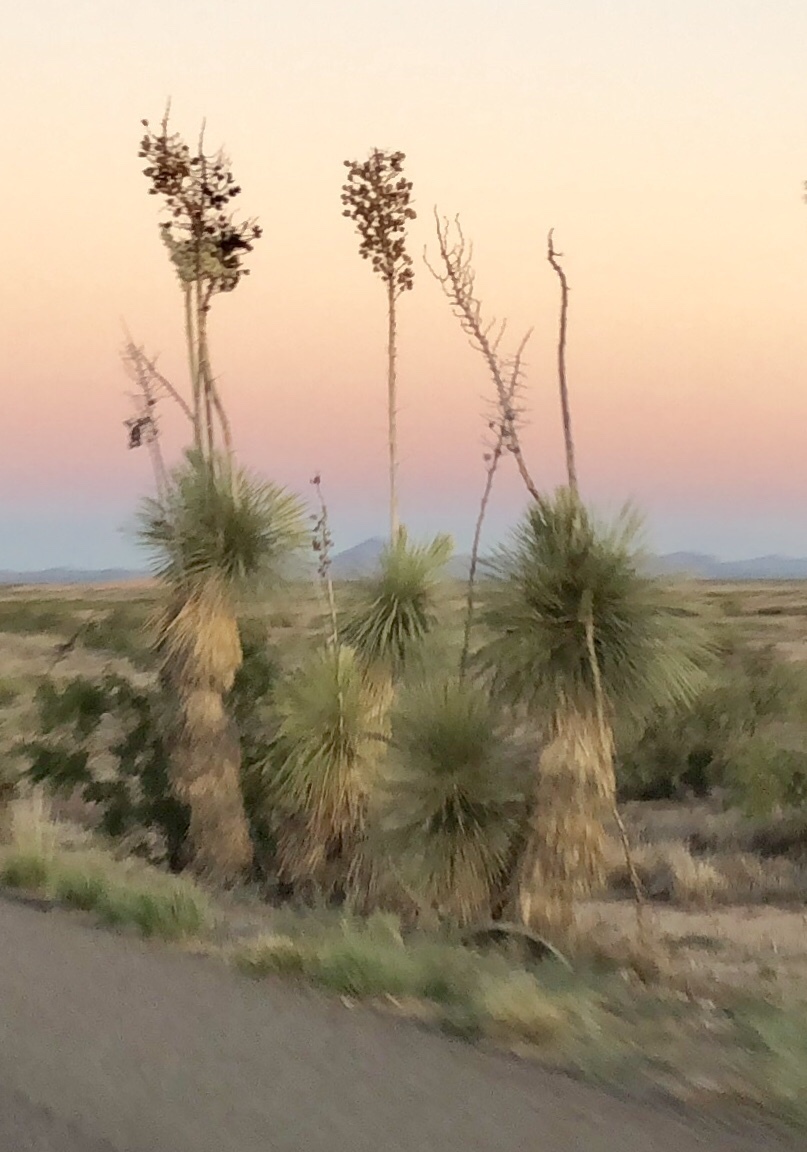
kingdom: Plantae
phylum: Tracheophyta
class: Liliopsida
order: Asparagales
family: Asparagaceae
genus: Yucca
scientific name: Yucca elata
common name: Palmella
